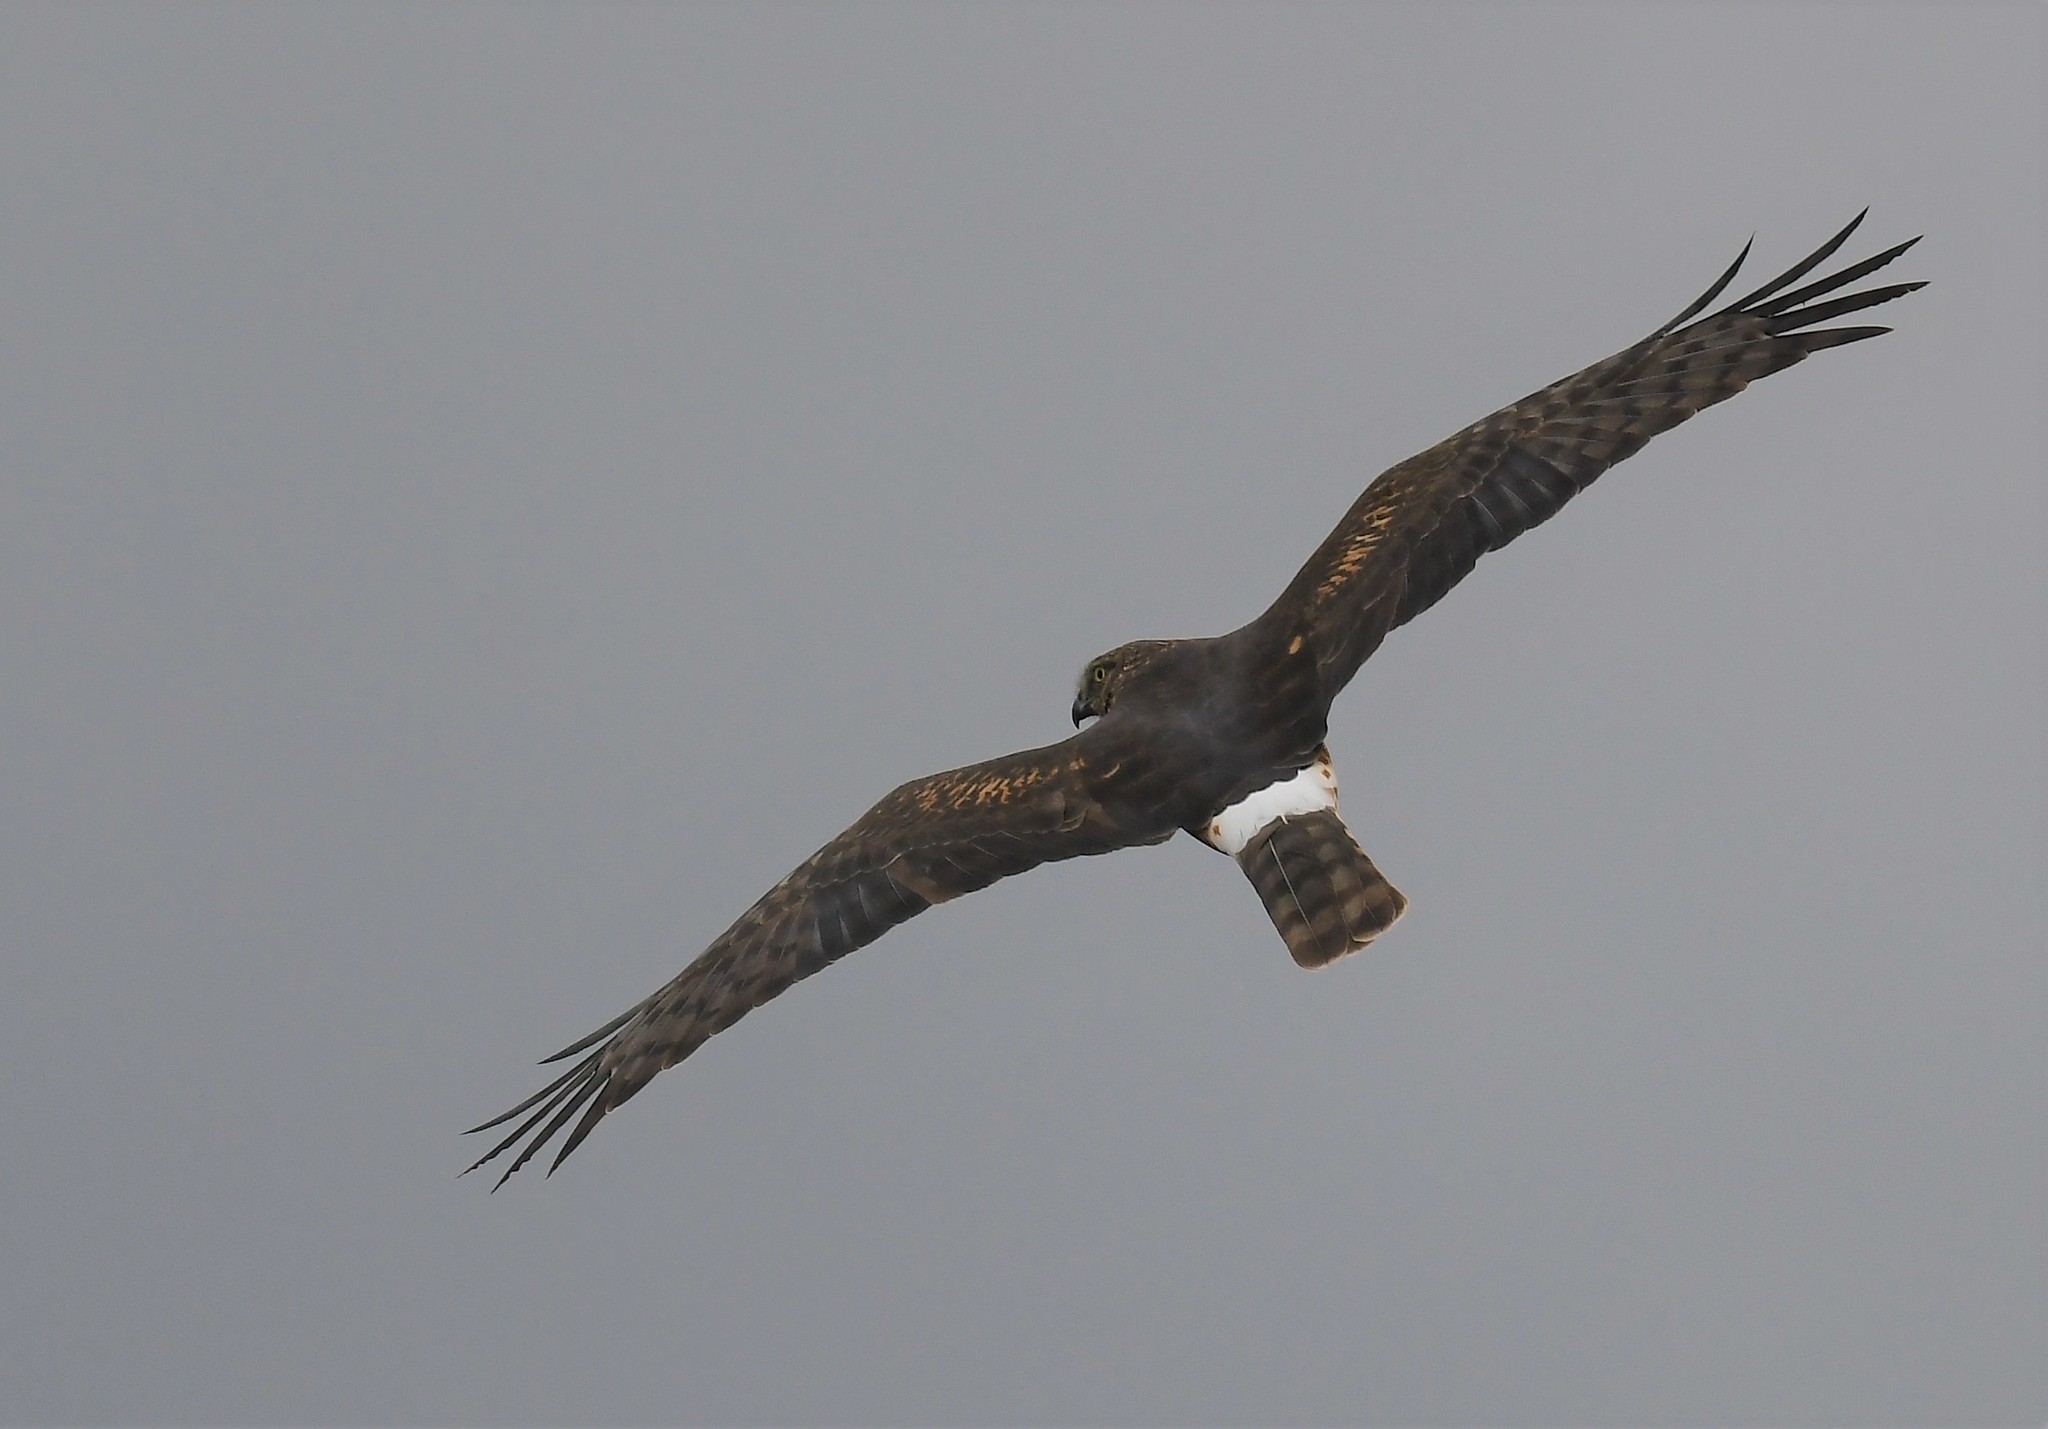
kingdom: Animalia
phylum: Chordata
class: Aves
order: Accipitriformes
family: Accipitridae
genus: Circus
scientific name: Circus cyaneus
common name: Hen harrier
